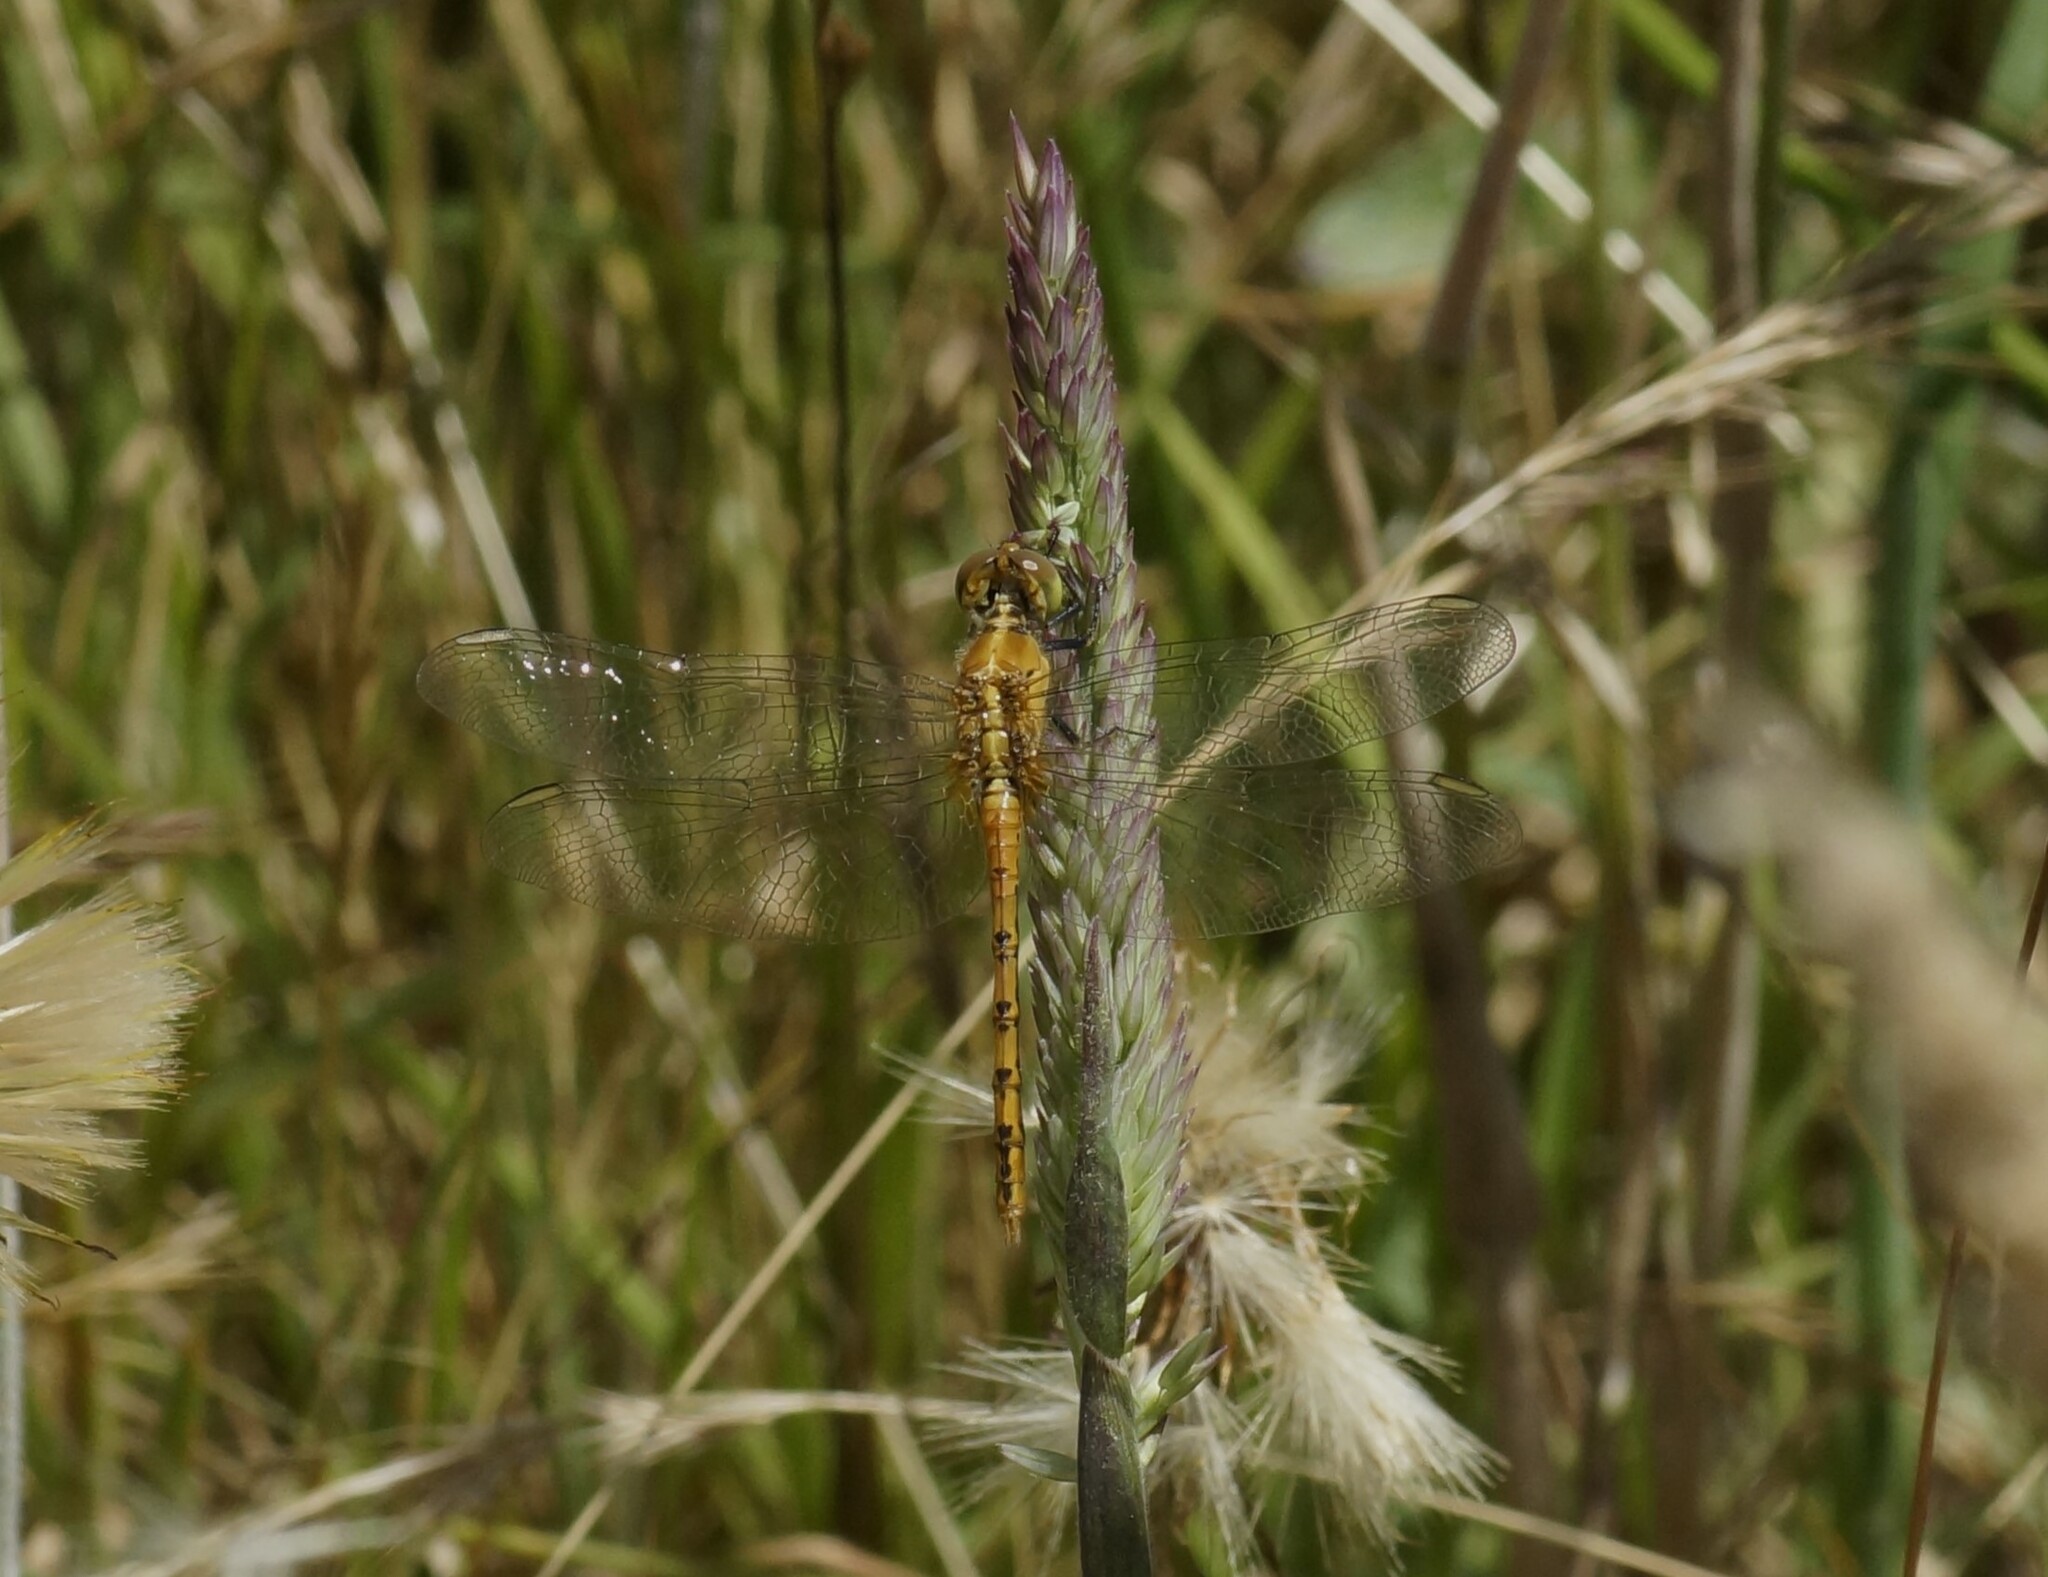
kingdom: Animalia
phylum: Arthropoda
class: Insecta
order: Odonata
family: Libellulidae
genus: Diplacodes
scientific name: Diplacodes bipunctata
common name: Red percher dragonfly
